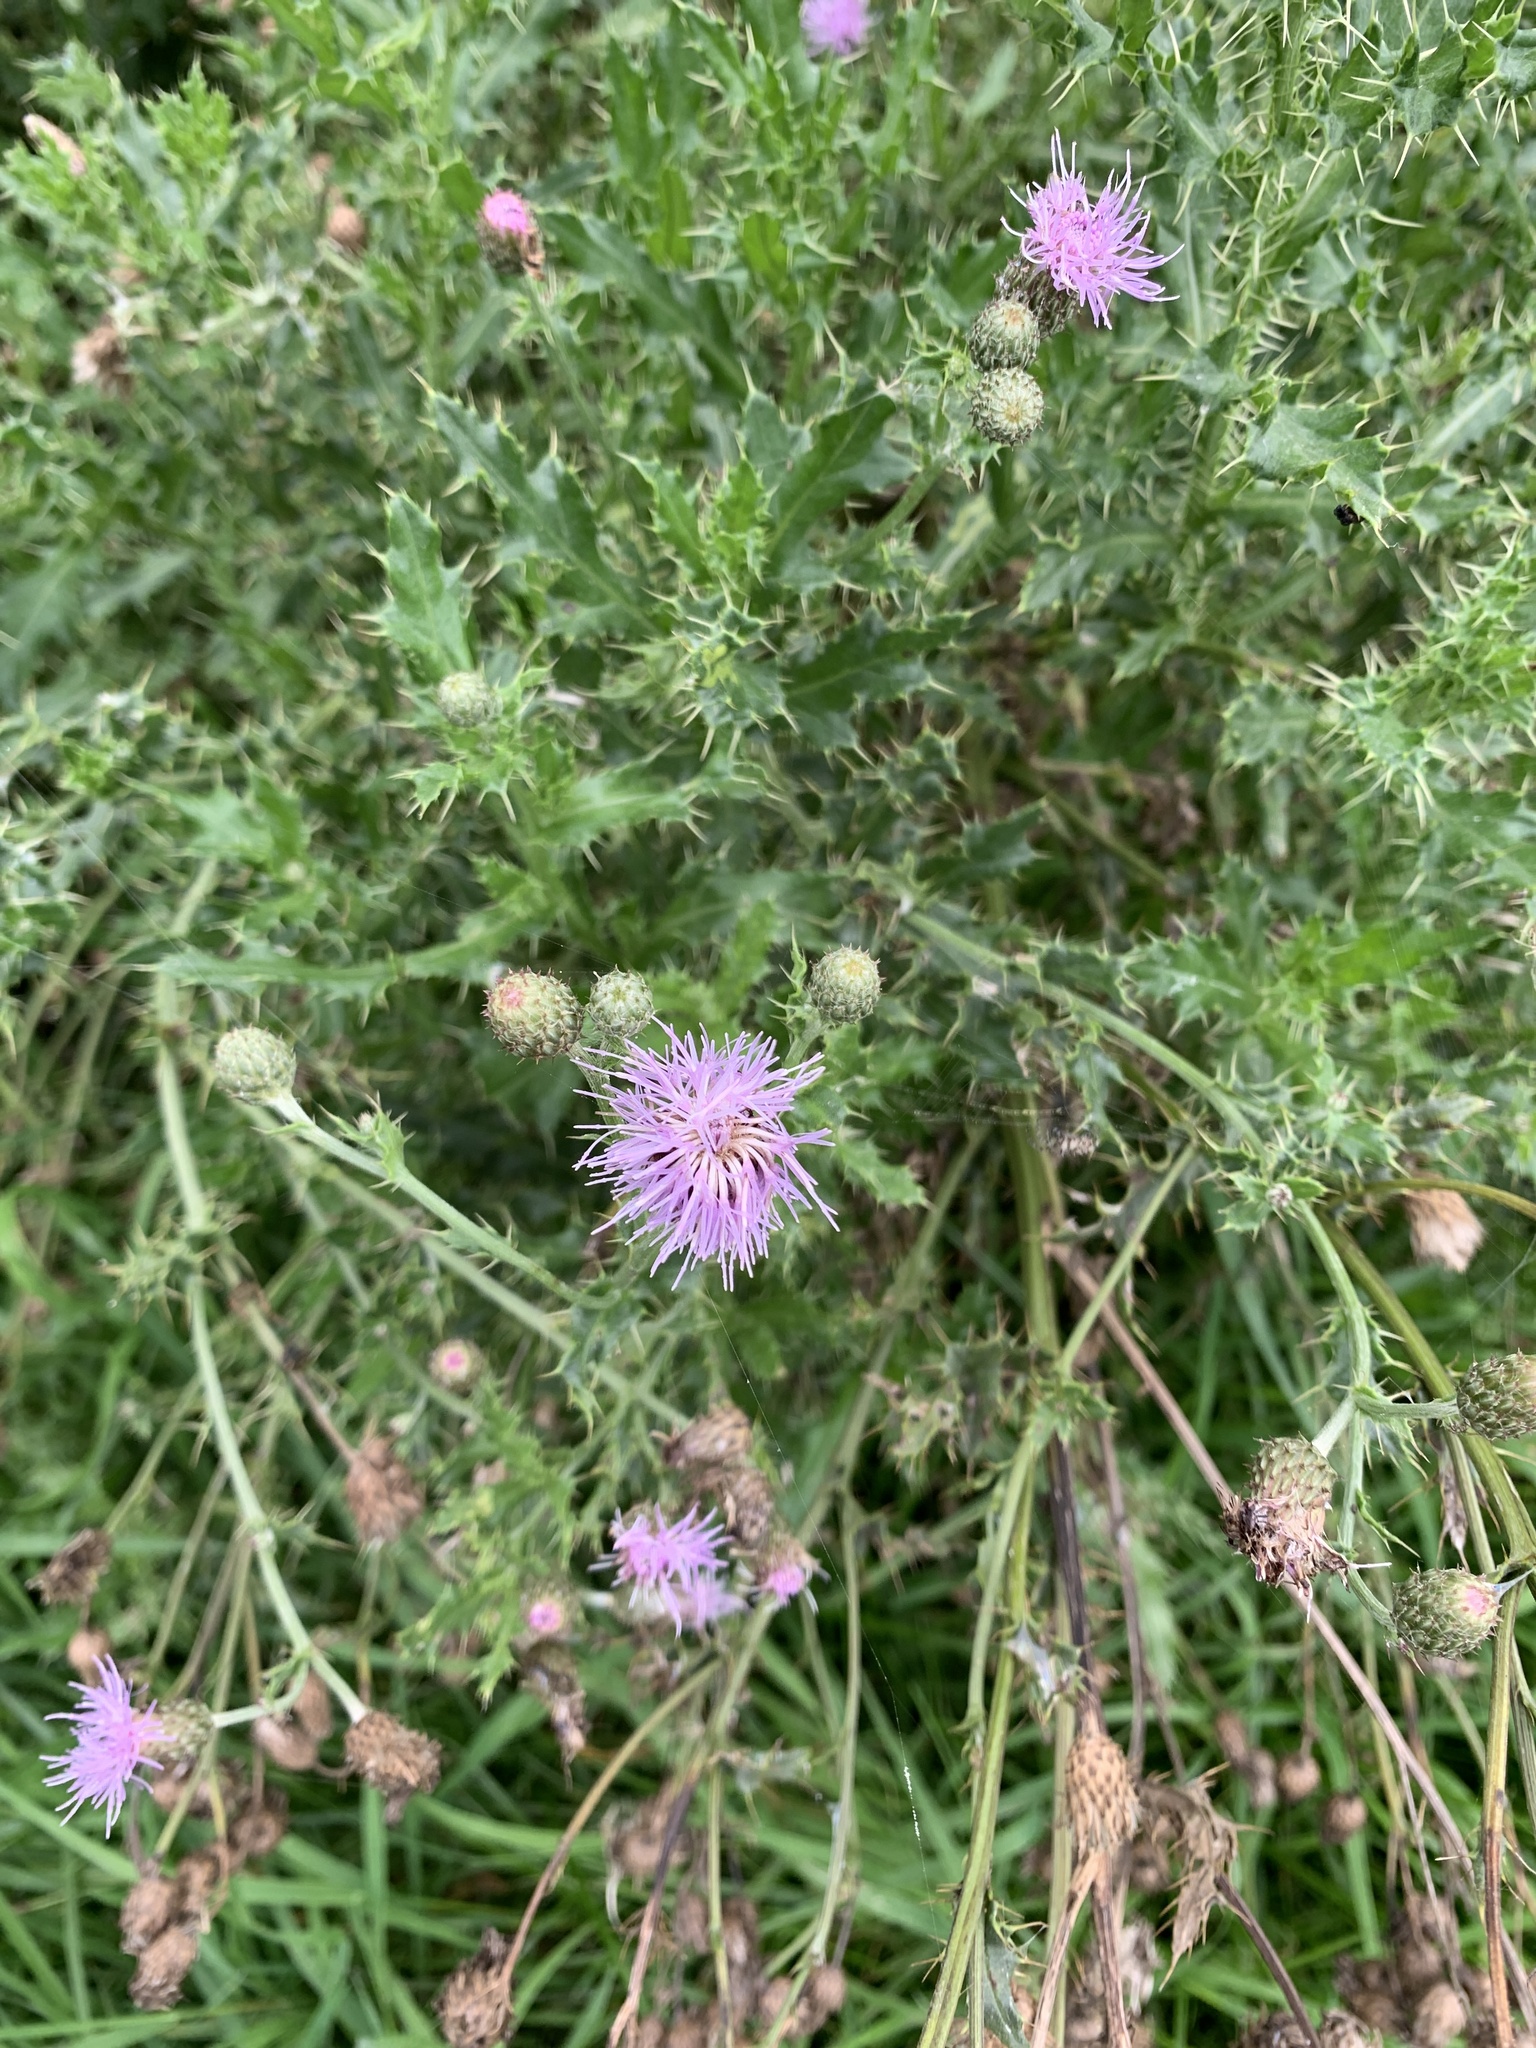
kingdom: Plantae
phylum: Tracheophyta
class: Magnoliopsida
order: Asterales
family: Asteraceae
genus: Cirsium
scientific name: Cirsium arvense
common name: Creeping thistle
